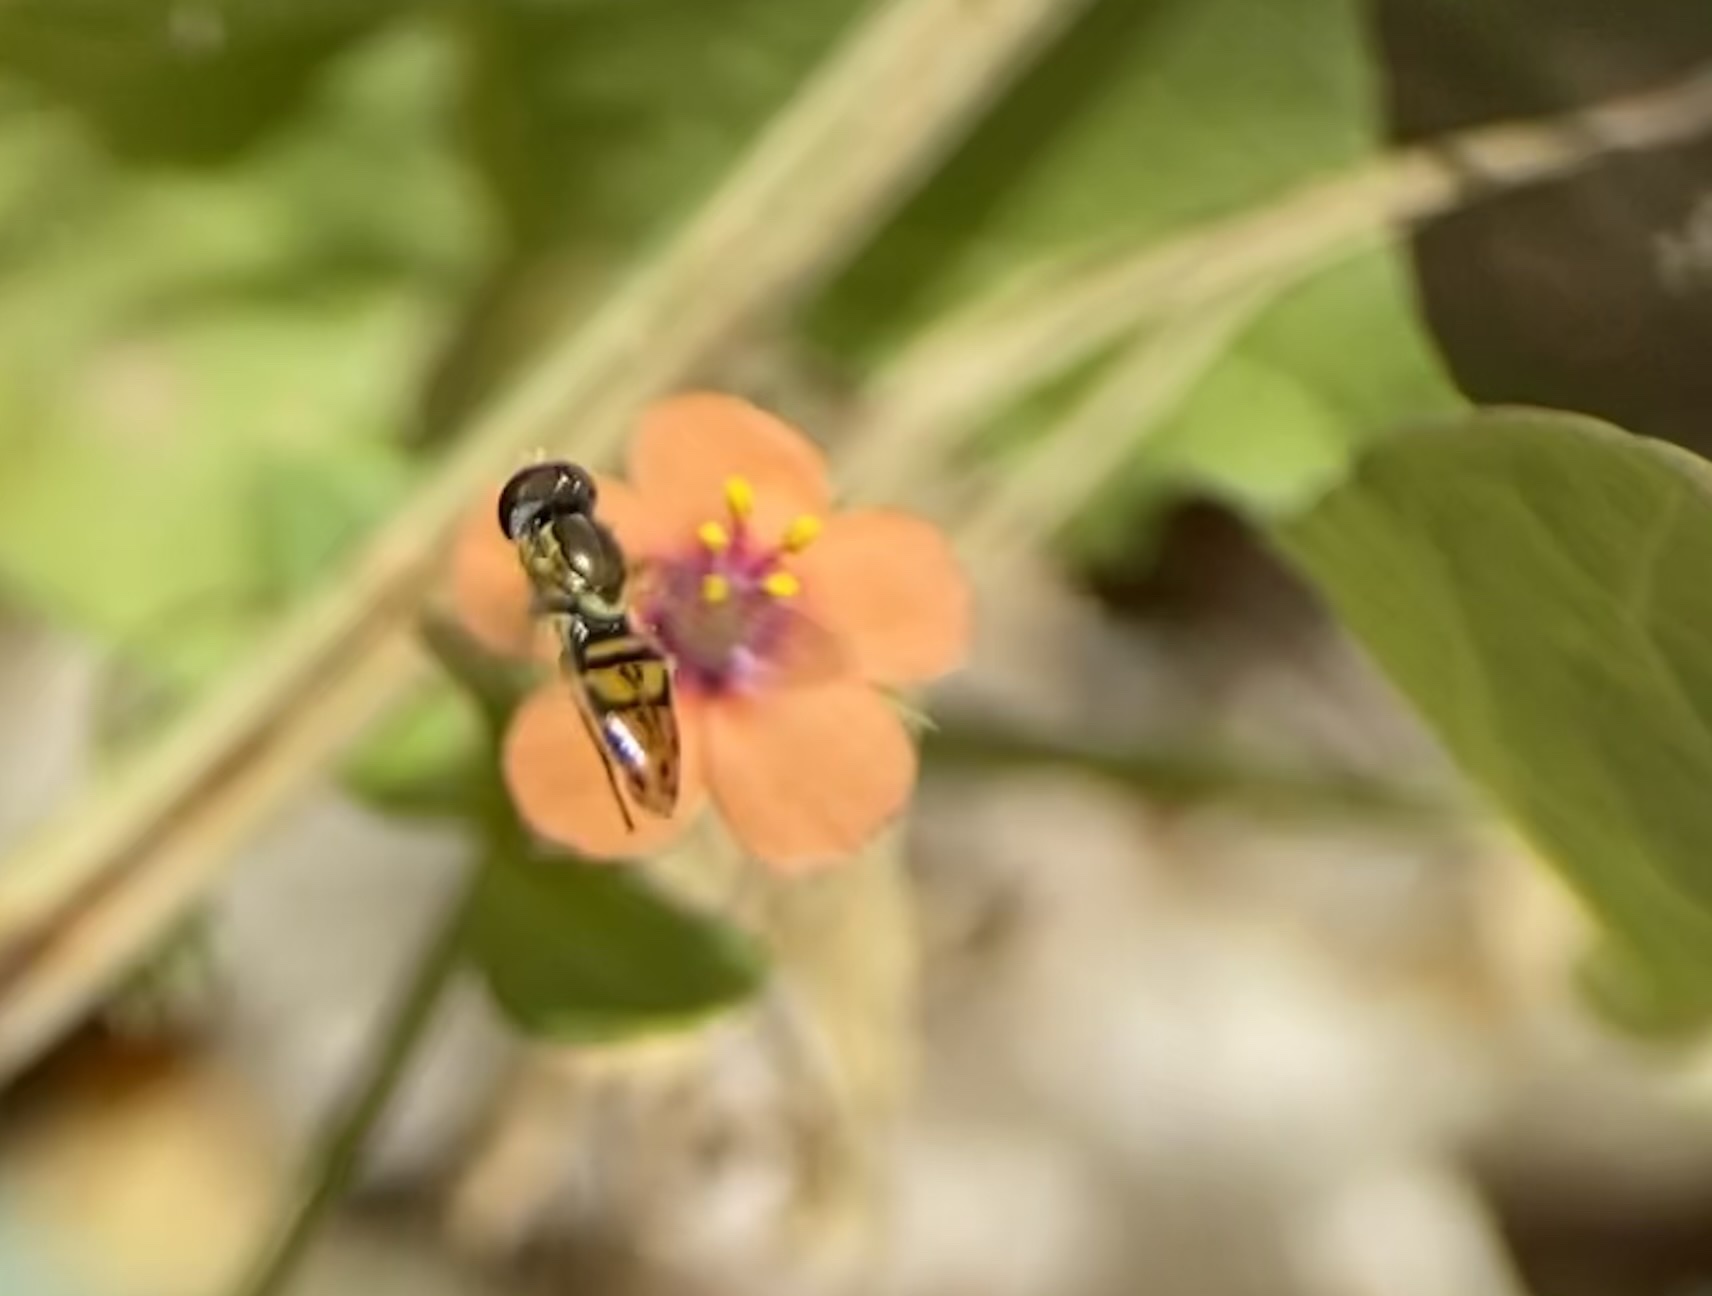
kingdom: Animalia
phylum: Arthropoda
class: Insecta
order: Diptera
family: Syrphidae
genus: Toxomerus
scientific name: Toxomerus marginatus
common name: Syrphid fly
